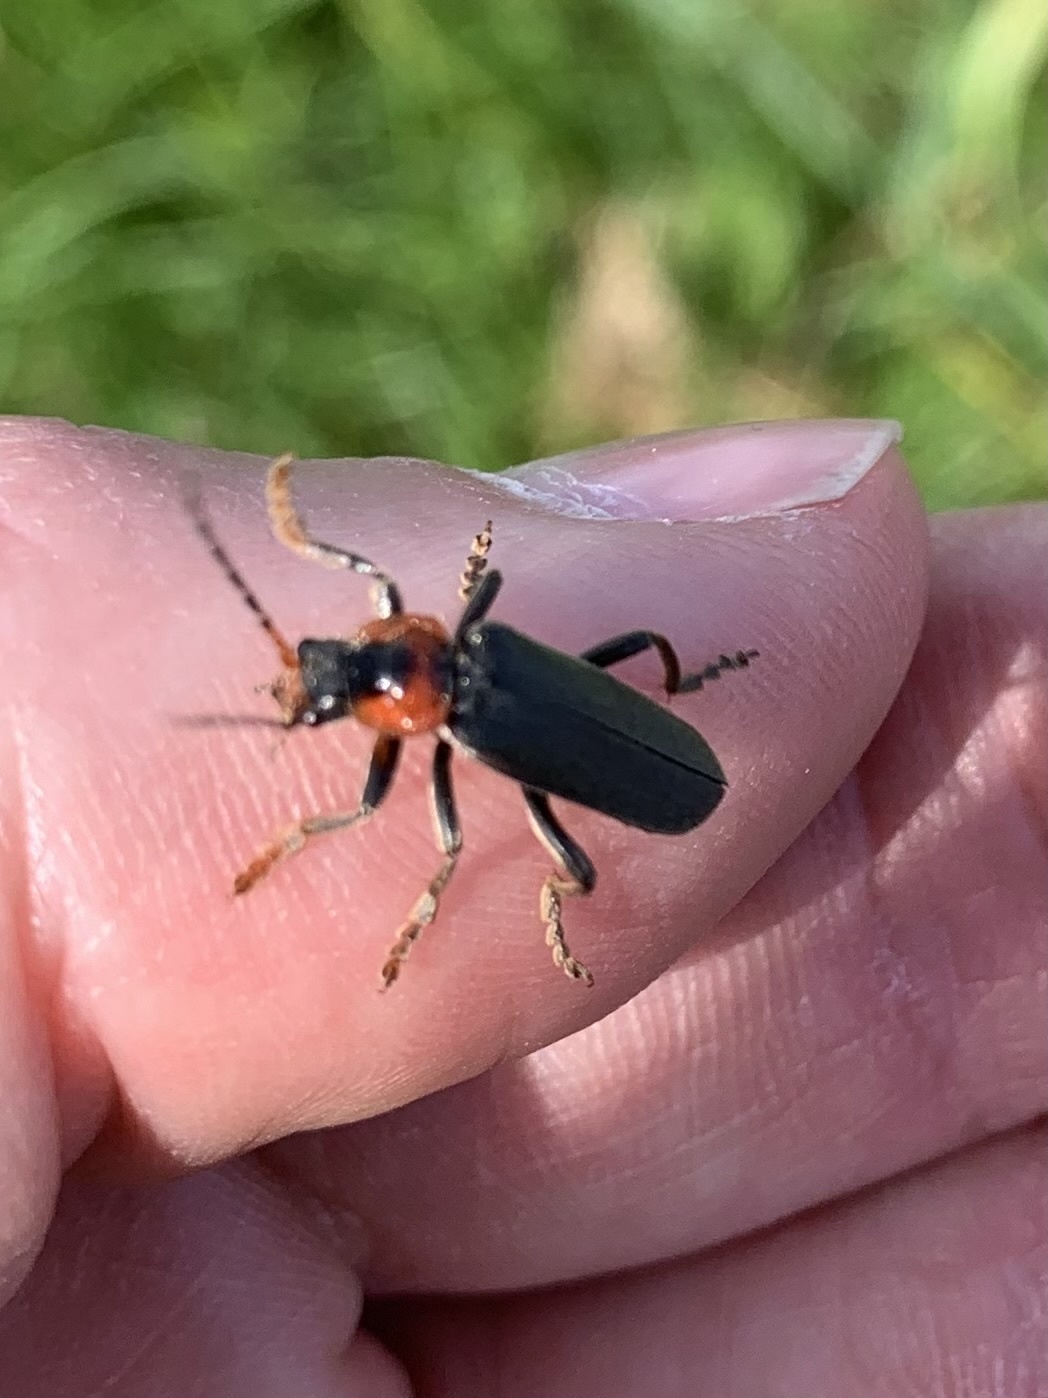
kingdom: Animalia
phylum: Arthropoda
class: Insecta
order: Coleoptera
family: Cantharidae
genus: Cantharis
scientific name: Cantharis fusca
